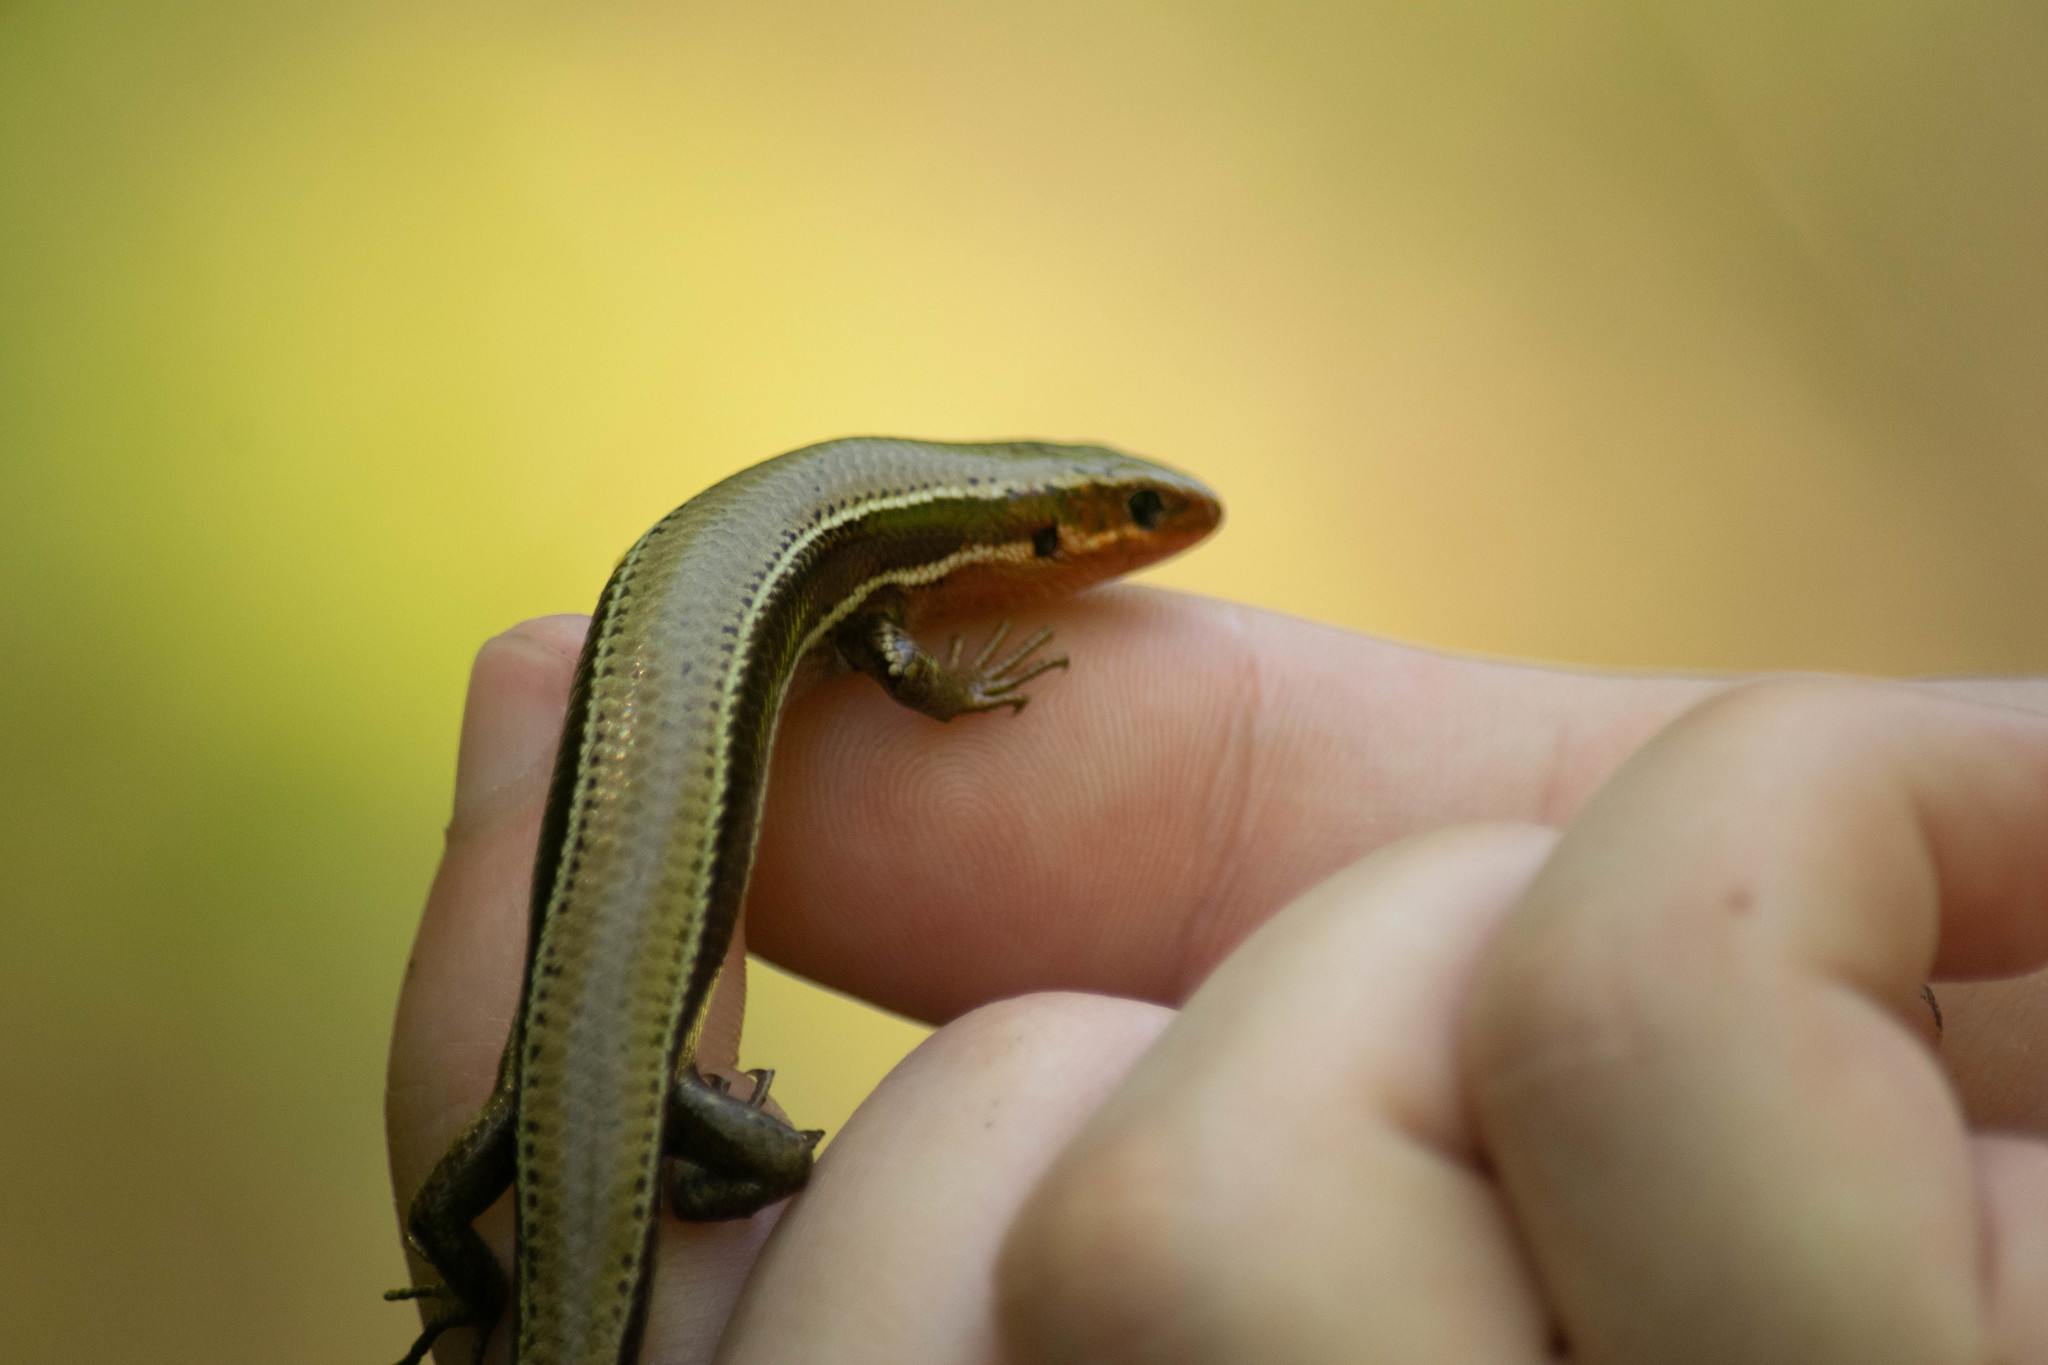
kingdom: Animalia
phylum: Chordata
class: Squamata
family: Scincidae
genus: Plestiodon
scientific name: Plestiodon anthracinus
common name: Coal skink
